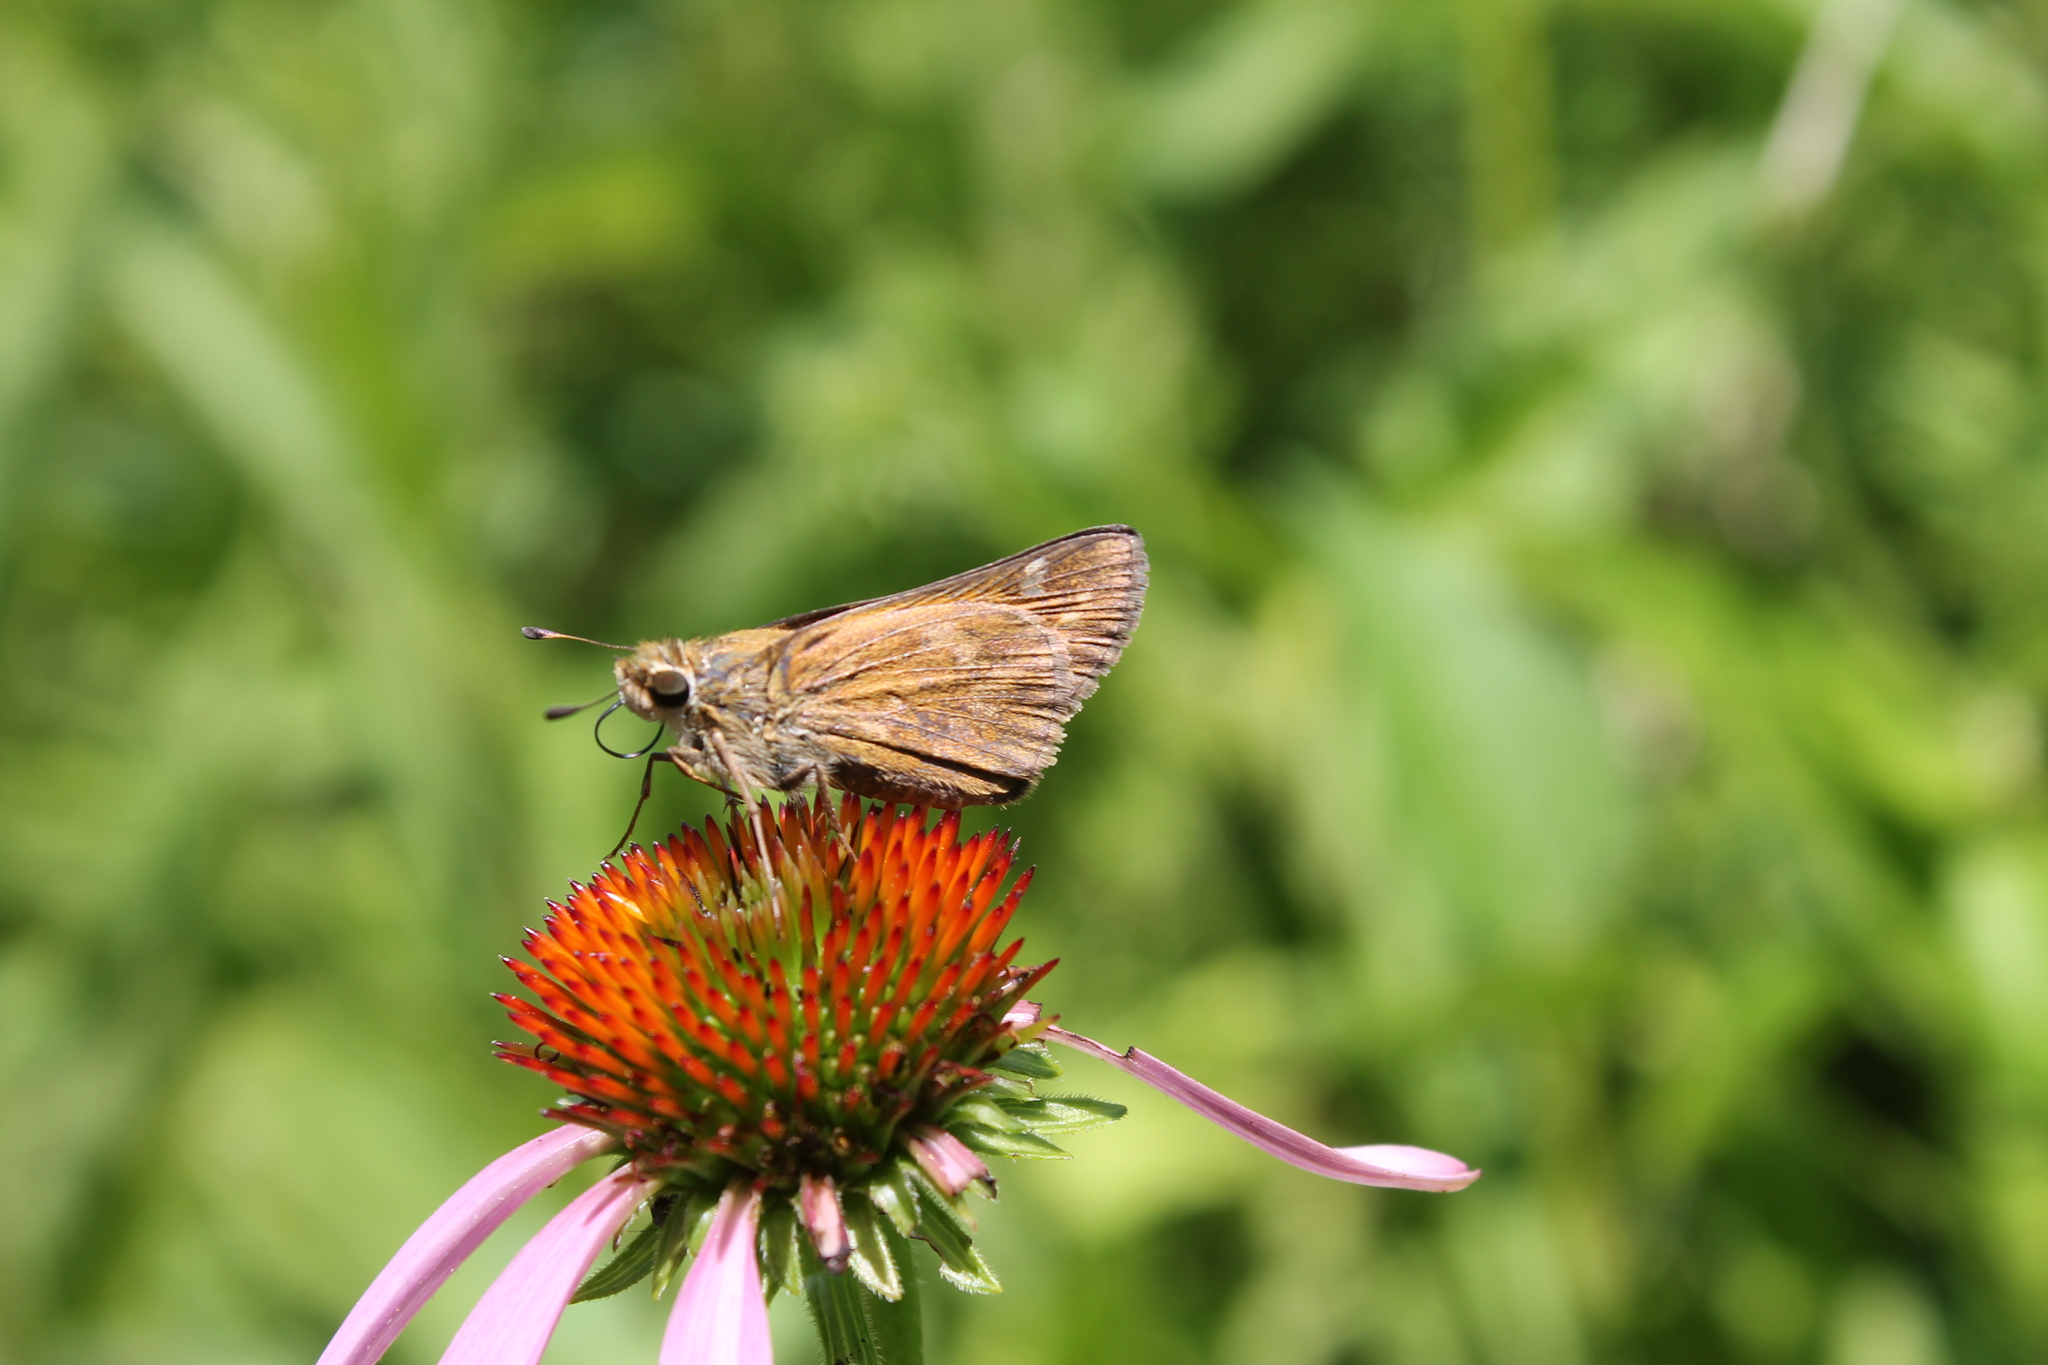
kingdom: Animalia
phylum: Arthropoda
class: Insecta
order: Lepidoptera
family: Hesperiidae
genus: Atalopedes
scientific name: Atalopedes
